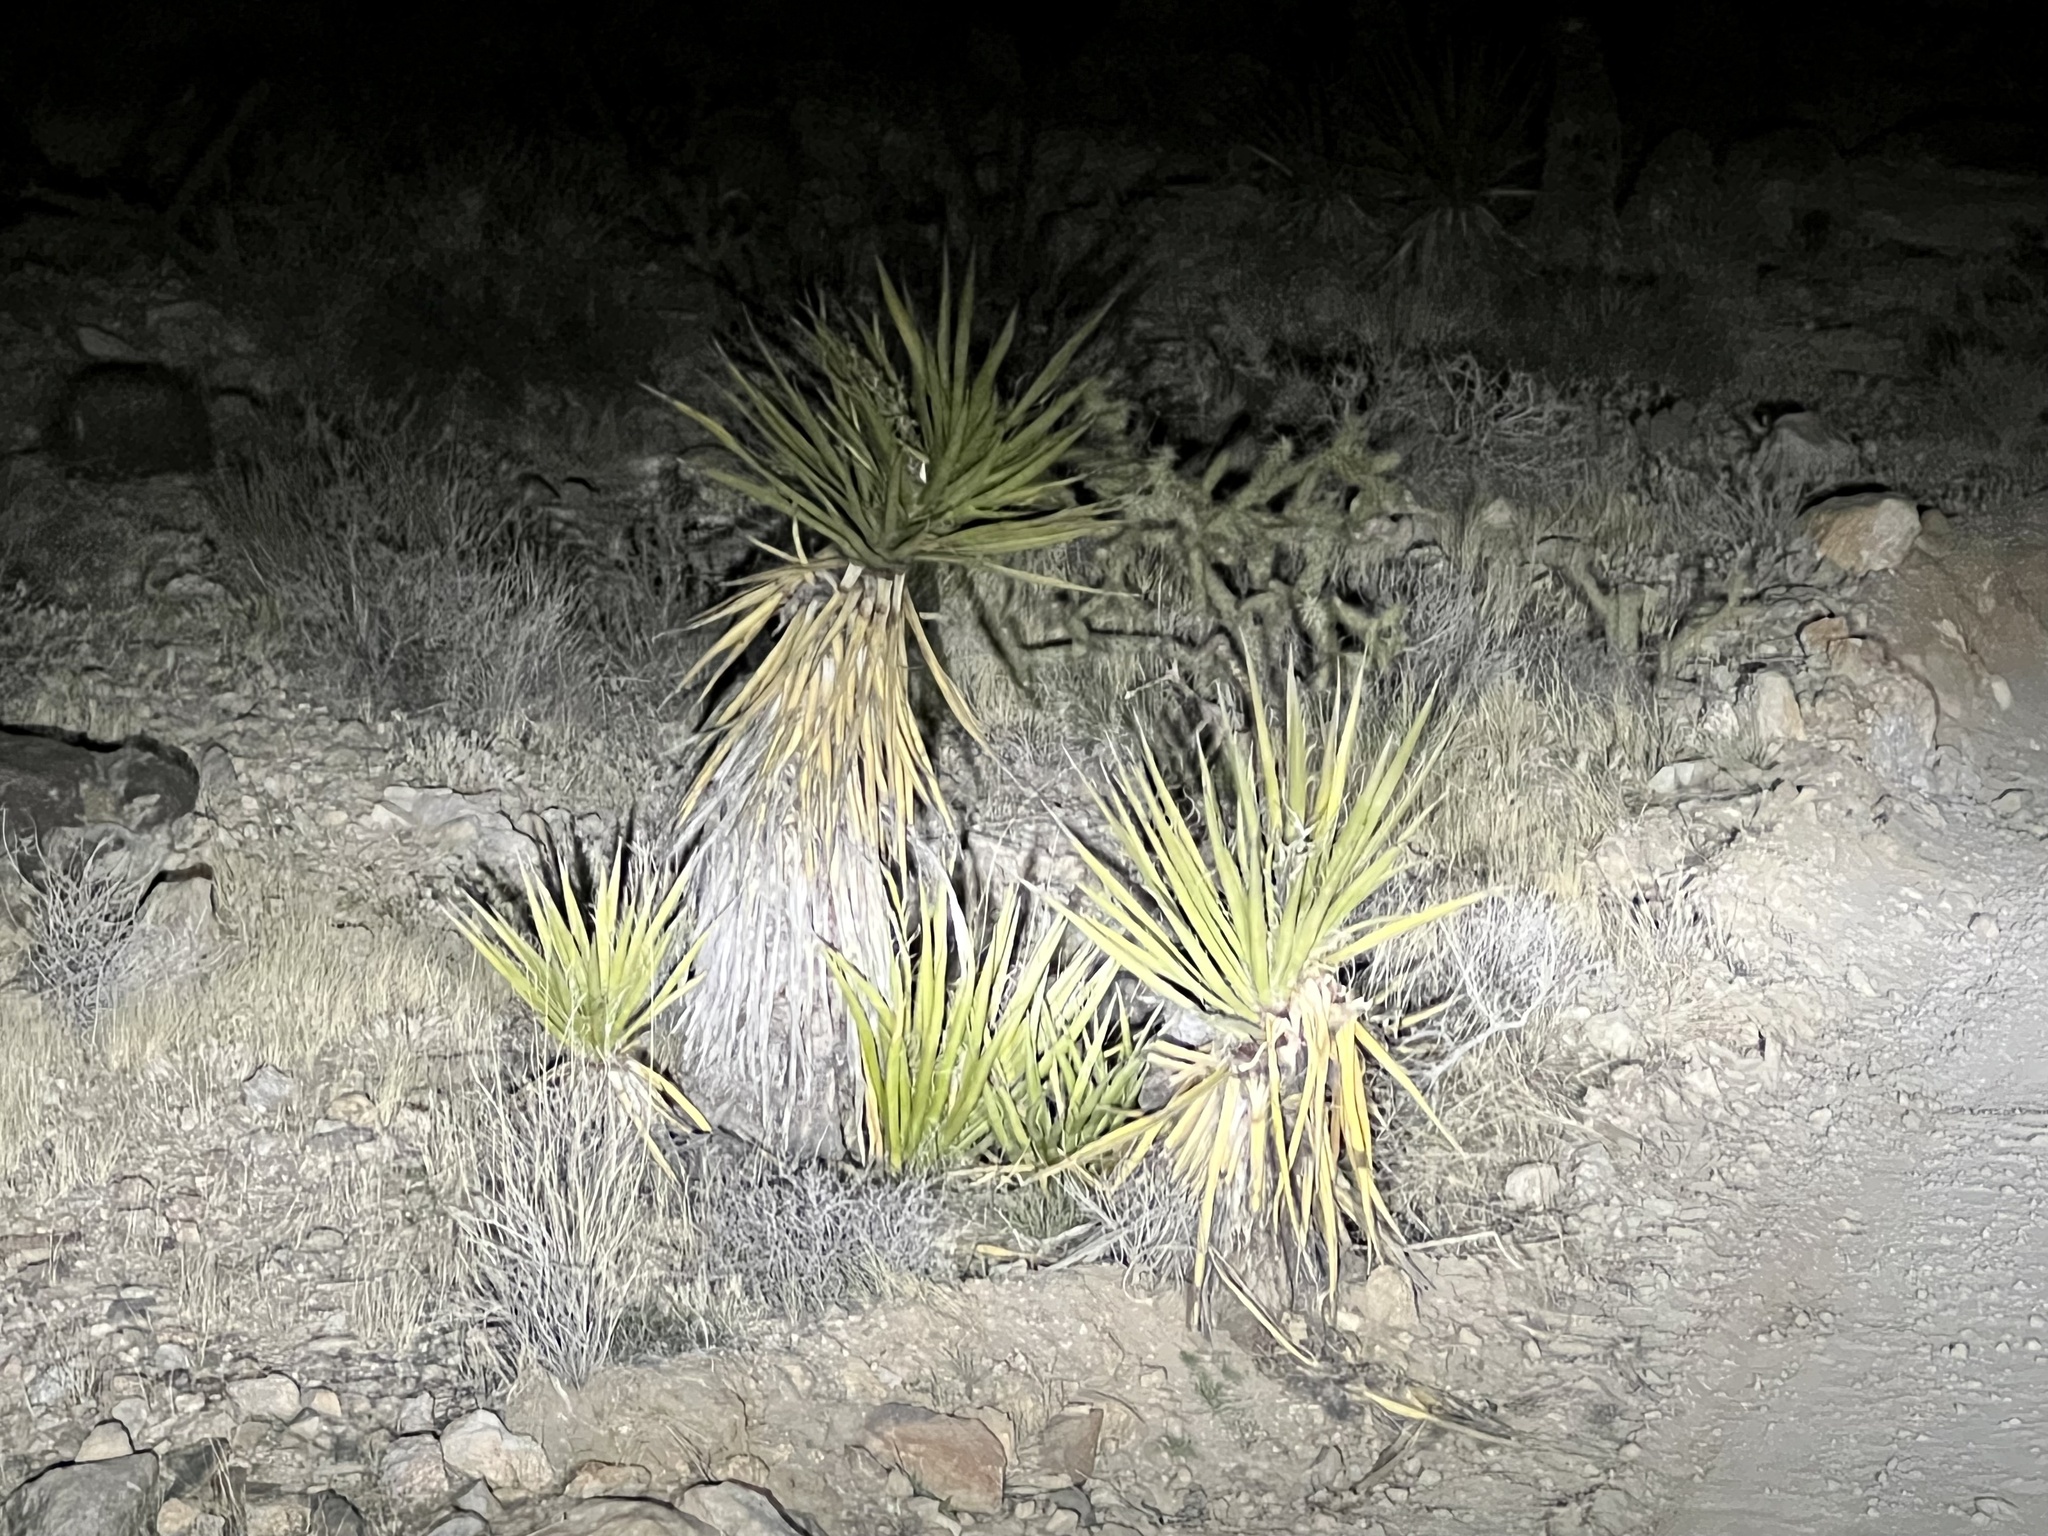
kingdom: Plantae
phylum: Tracheophyta
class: Liliopsida
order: Asparagales
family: Asparagaceae
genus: Yucca
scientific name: Yucca schidigera
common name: Mojave yucca
